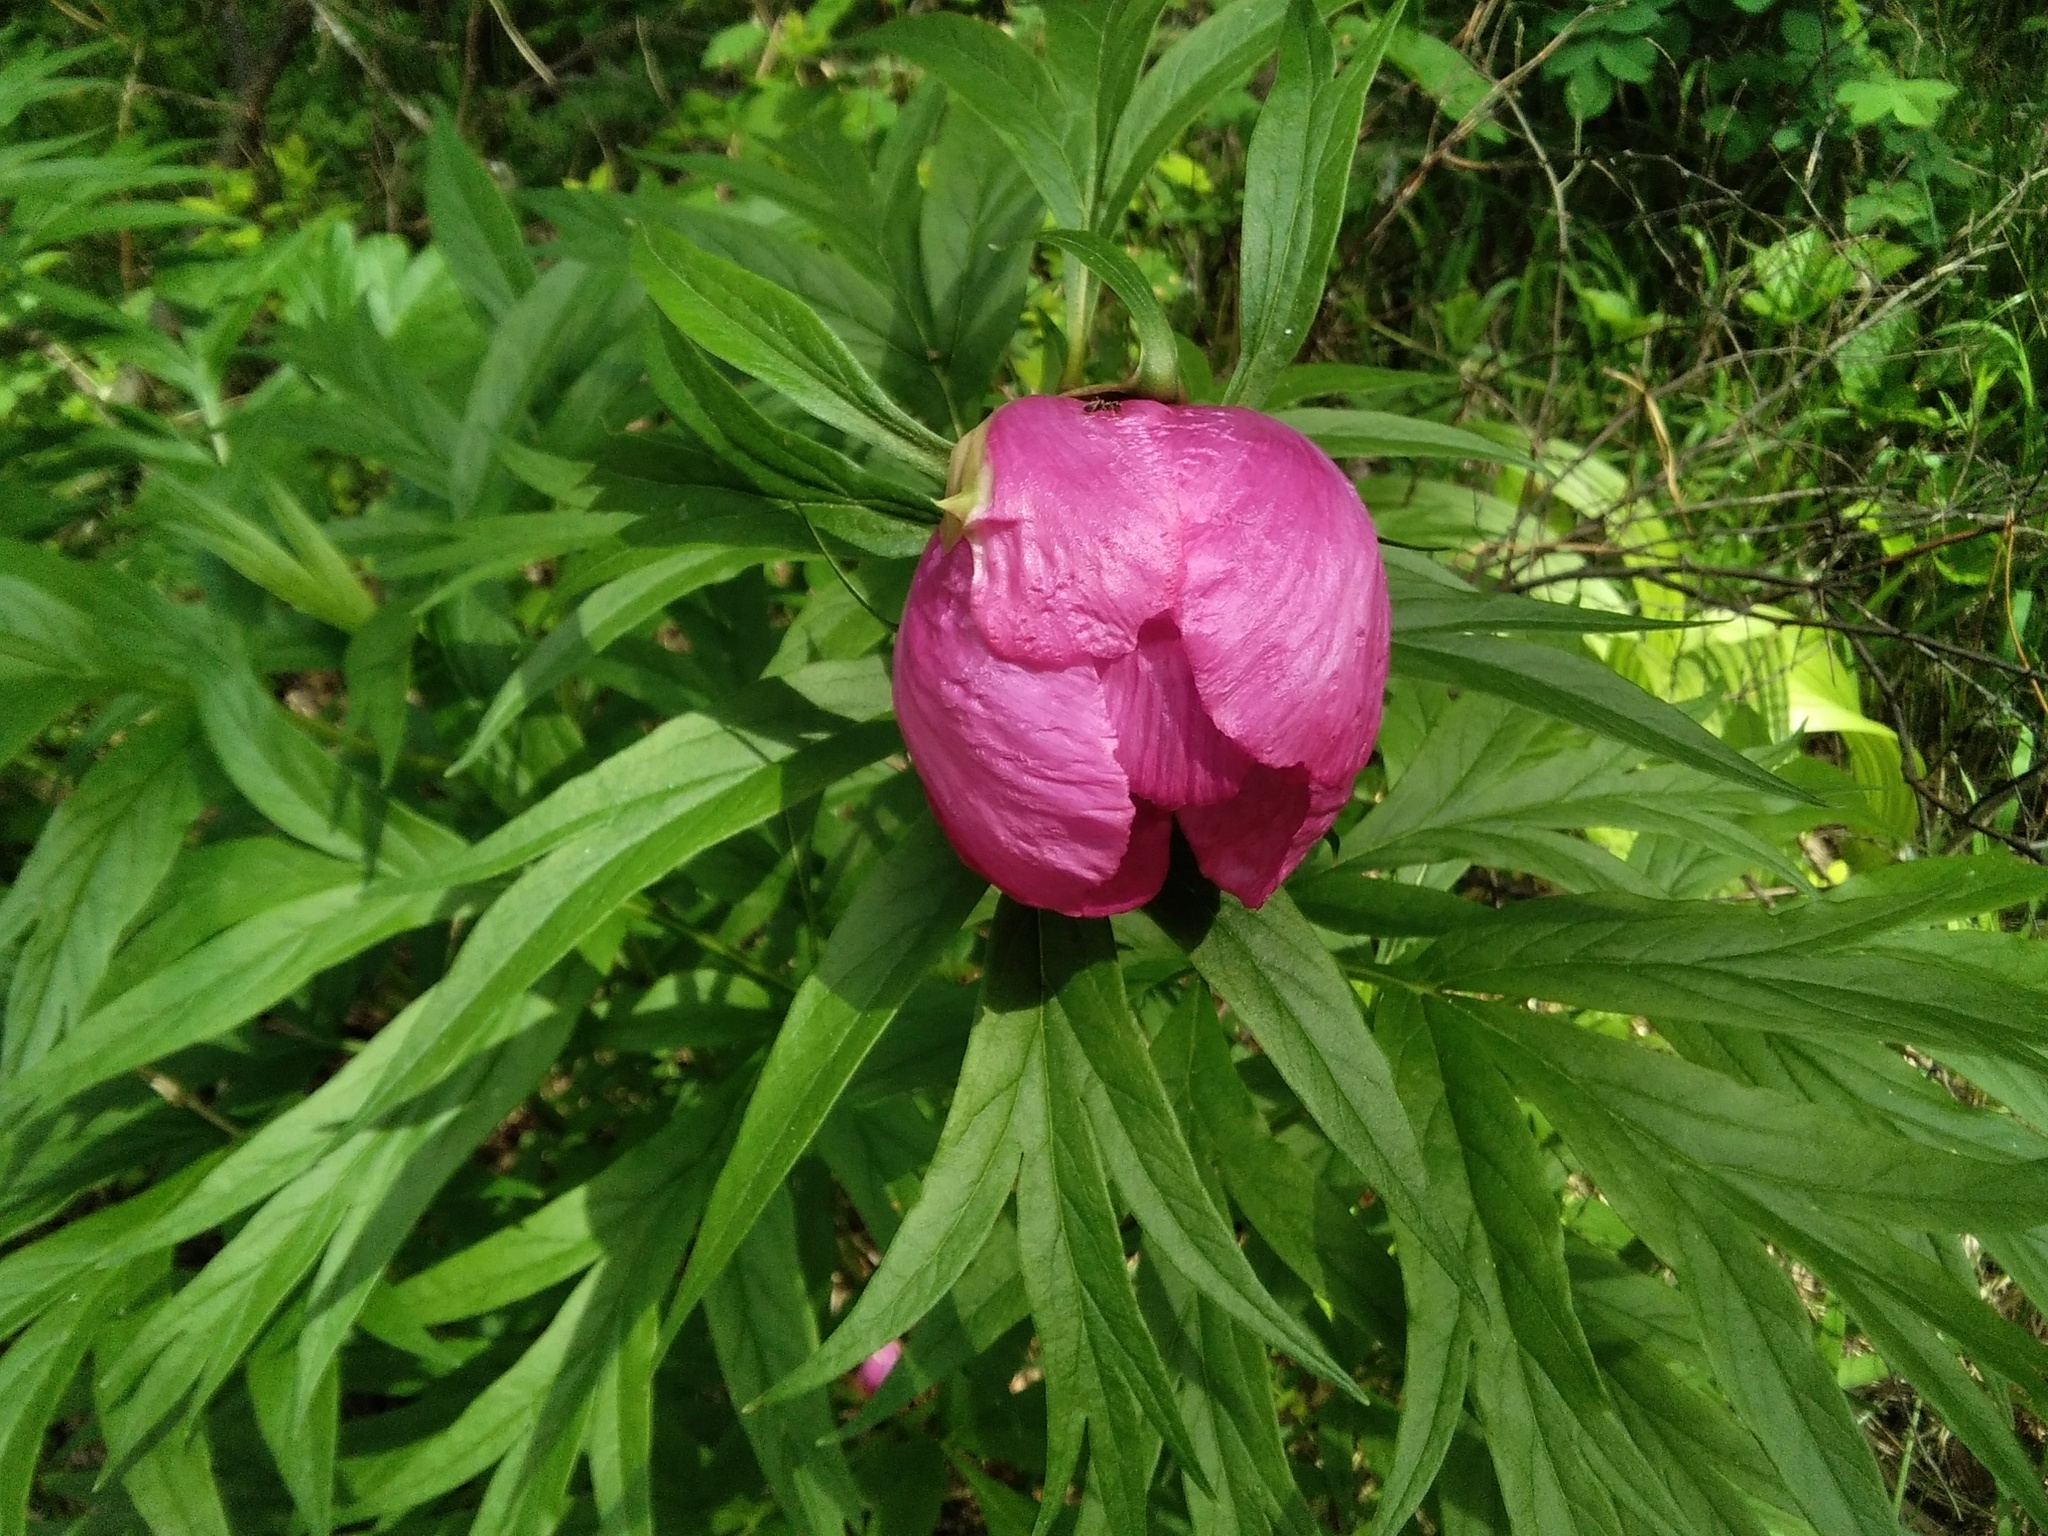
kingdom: Plantae
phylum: Tracheophyta
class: Magnoliopsida
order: Saxifragales
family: Paeoniaceae
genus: Paeonia
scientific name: Paeonia anomala
